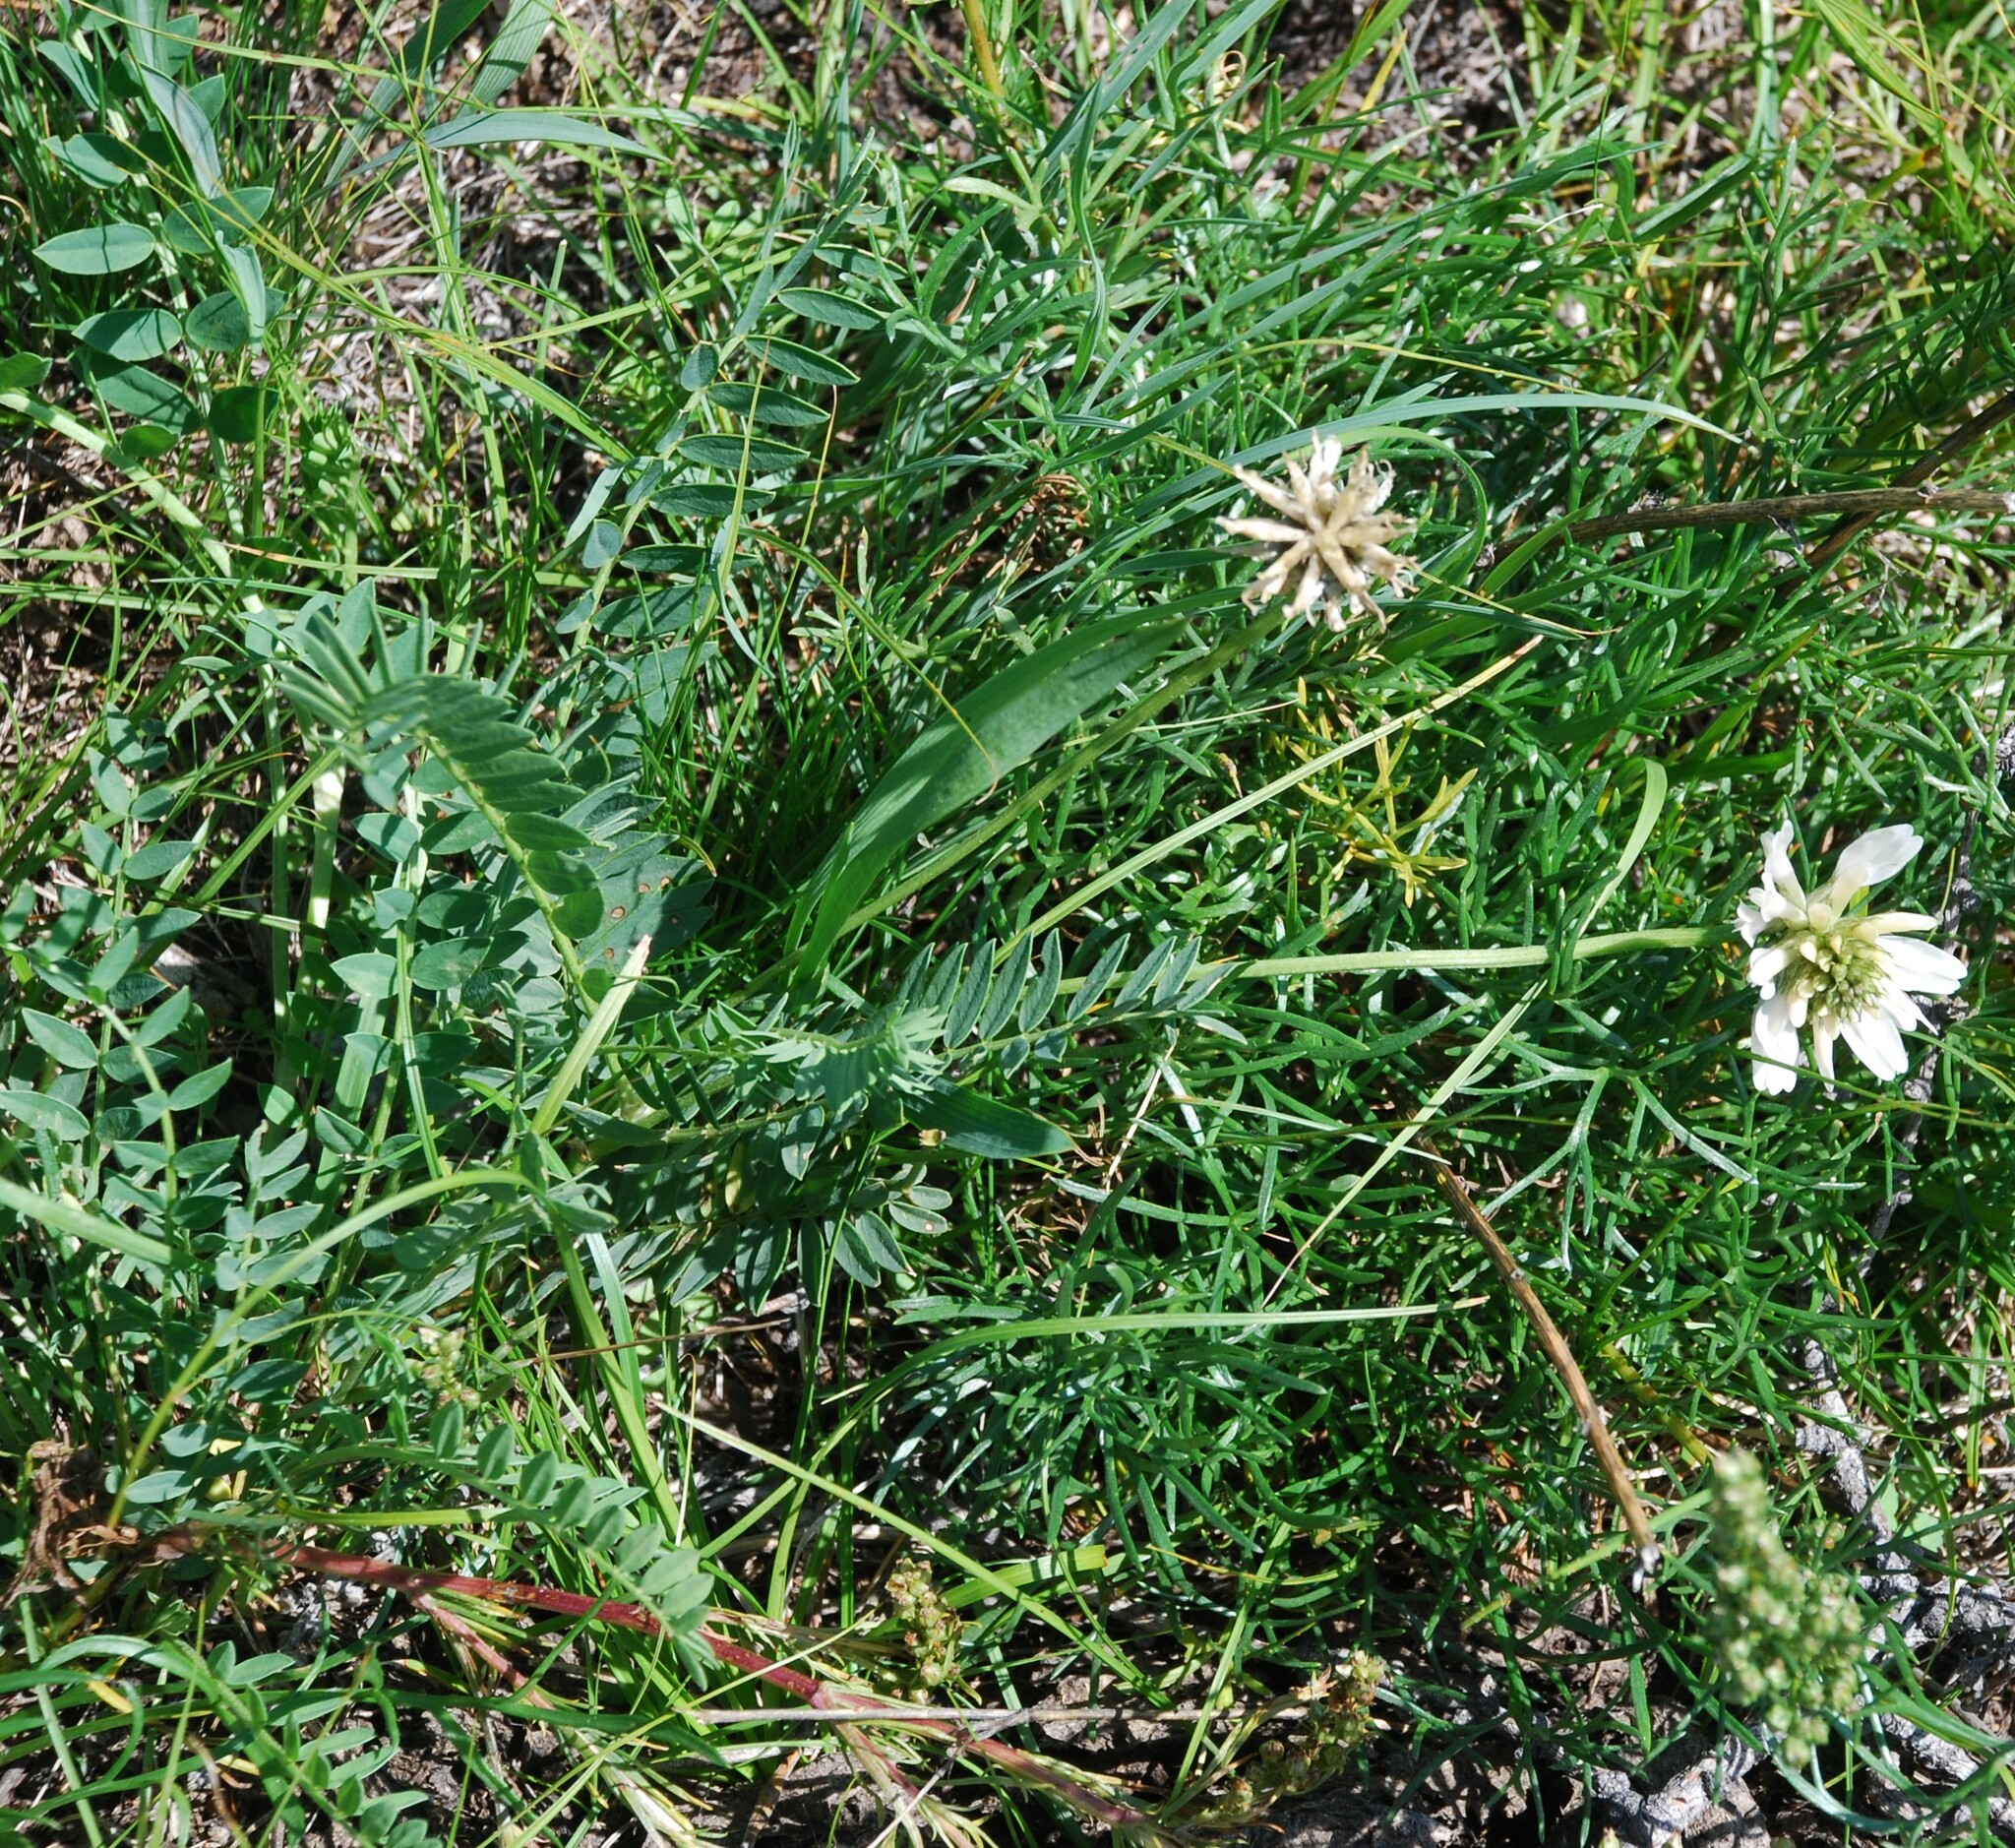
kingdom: Plantae
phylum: Tracheophyta
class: Magnoliopsida
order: Fabales
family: Fabaceae
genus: Astragalus
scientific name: Astragalus laxmannii
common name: Laxmann's milk-vetch
